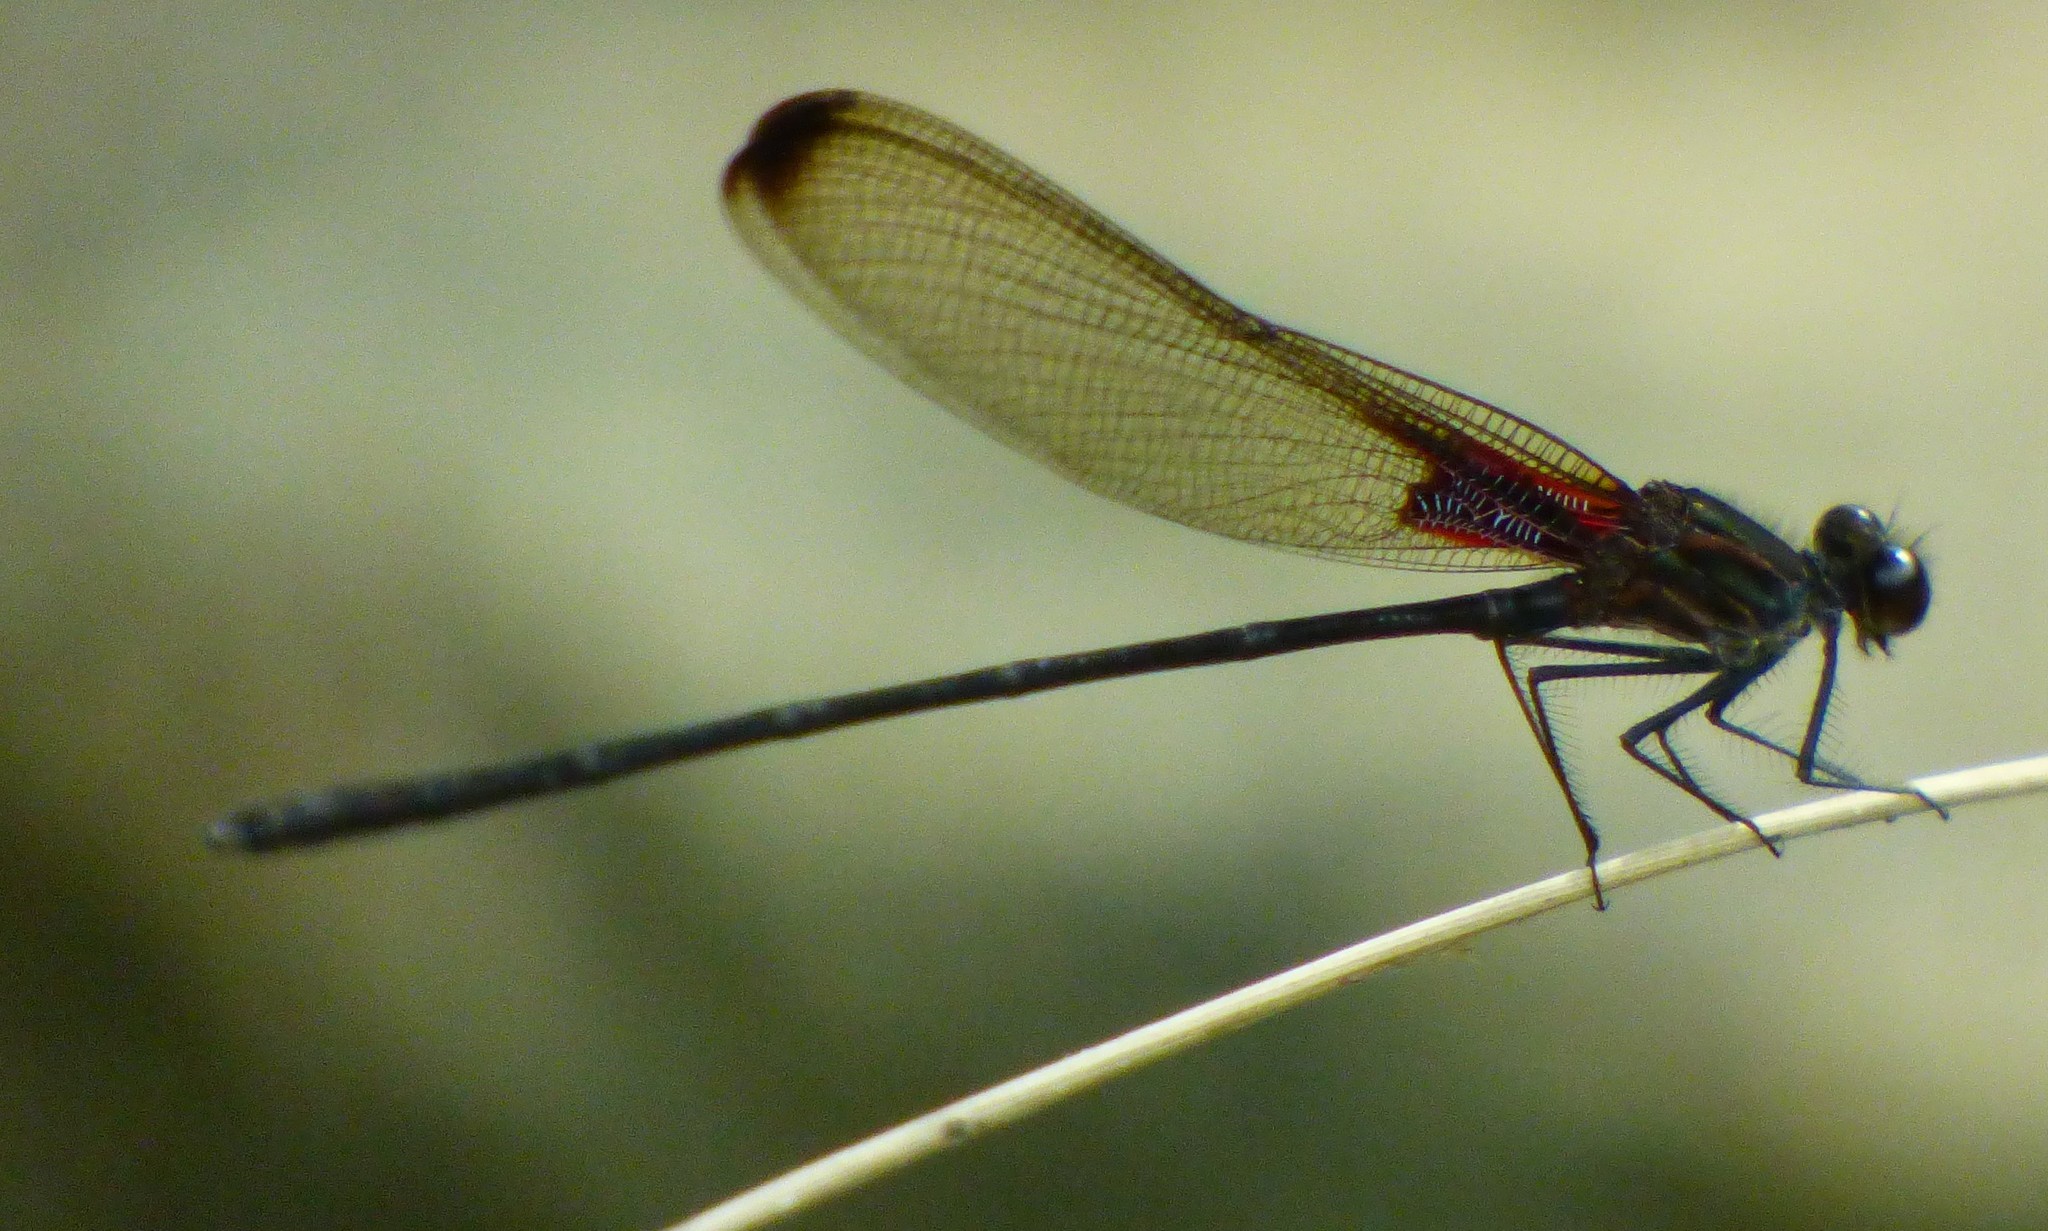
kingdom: Animalia
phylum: Arthropoda
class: Insecta
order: Odonata
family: Calopterygidae
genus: Hetaerina
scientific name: Hetaerina titia
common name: Smoky rubyspot
